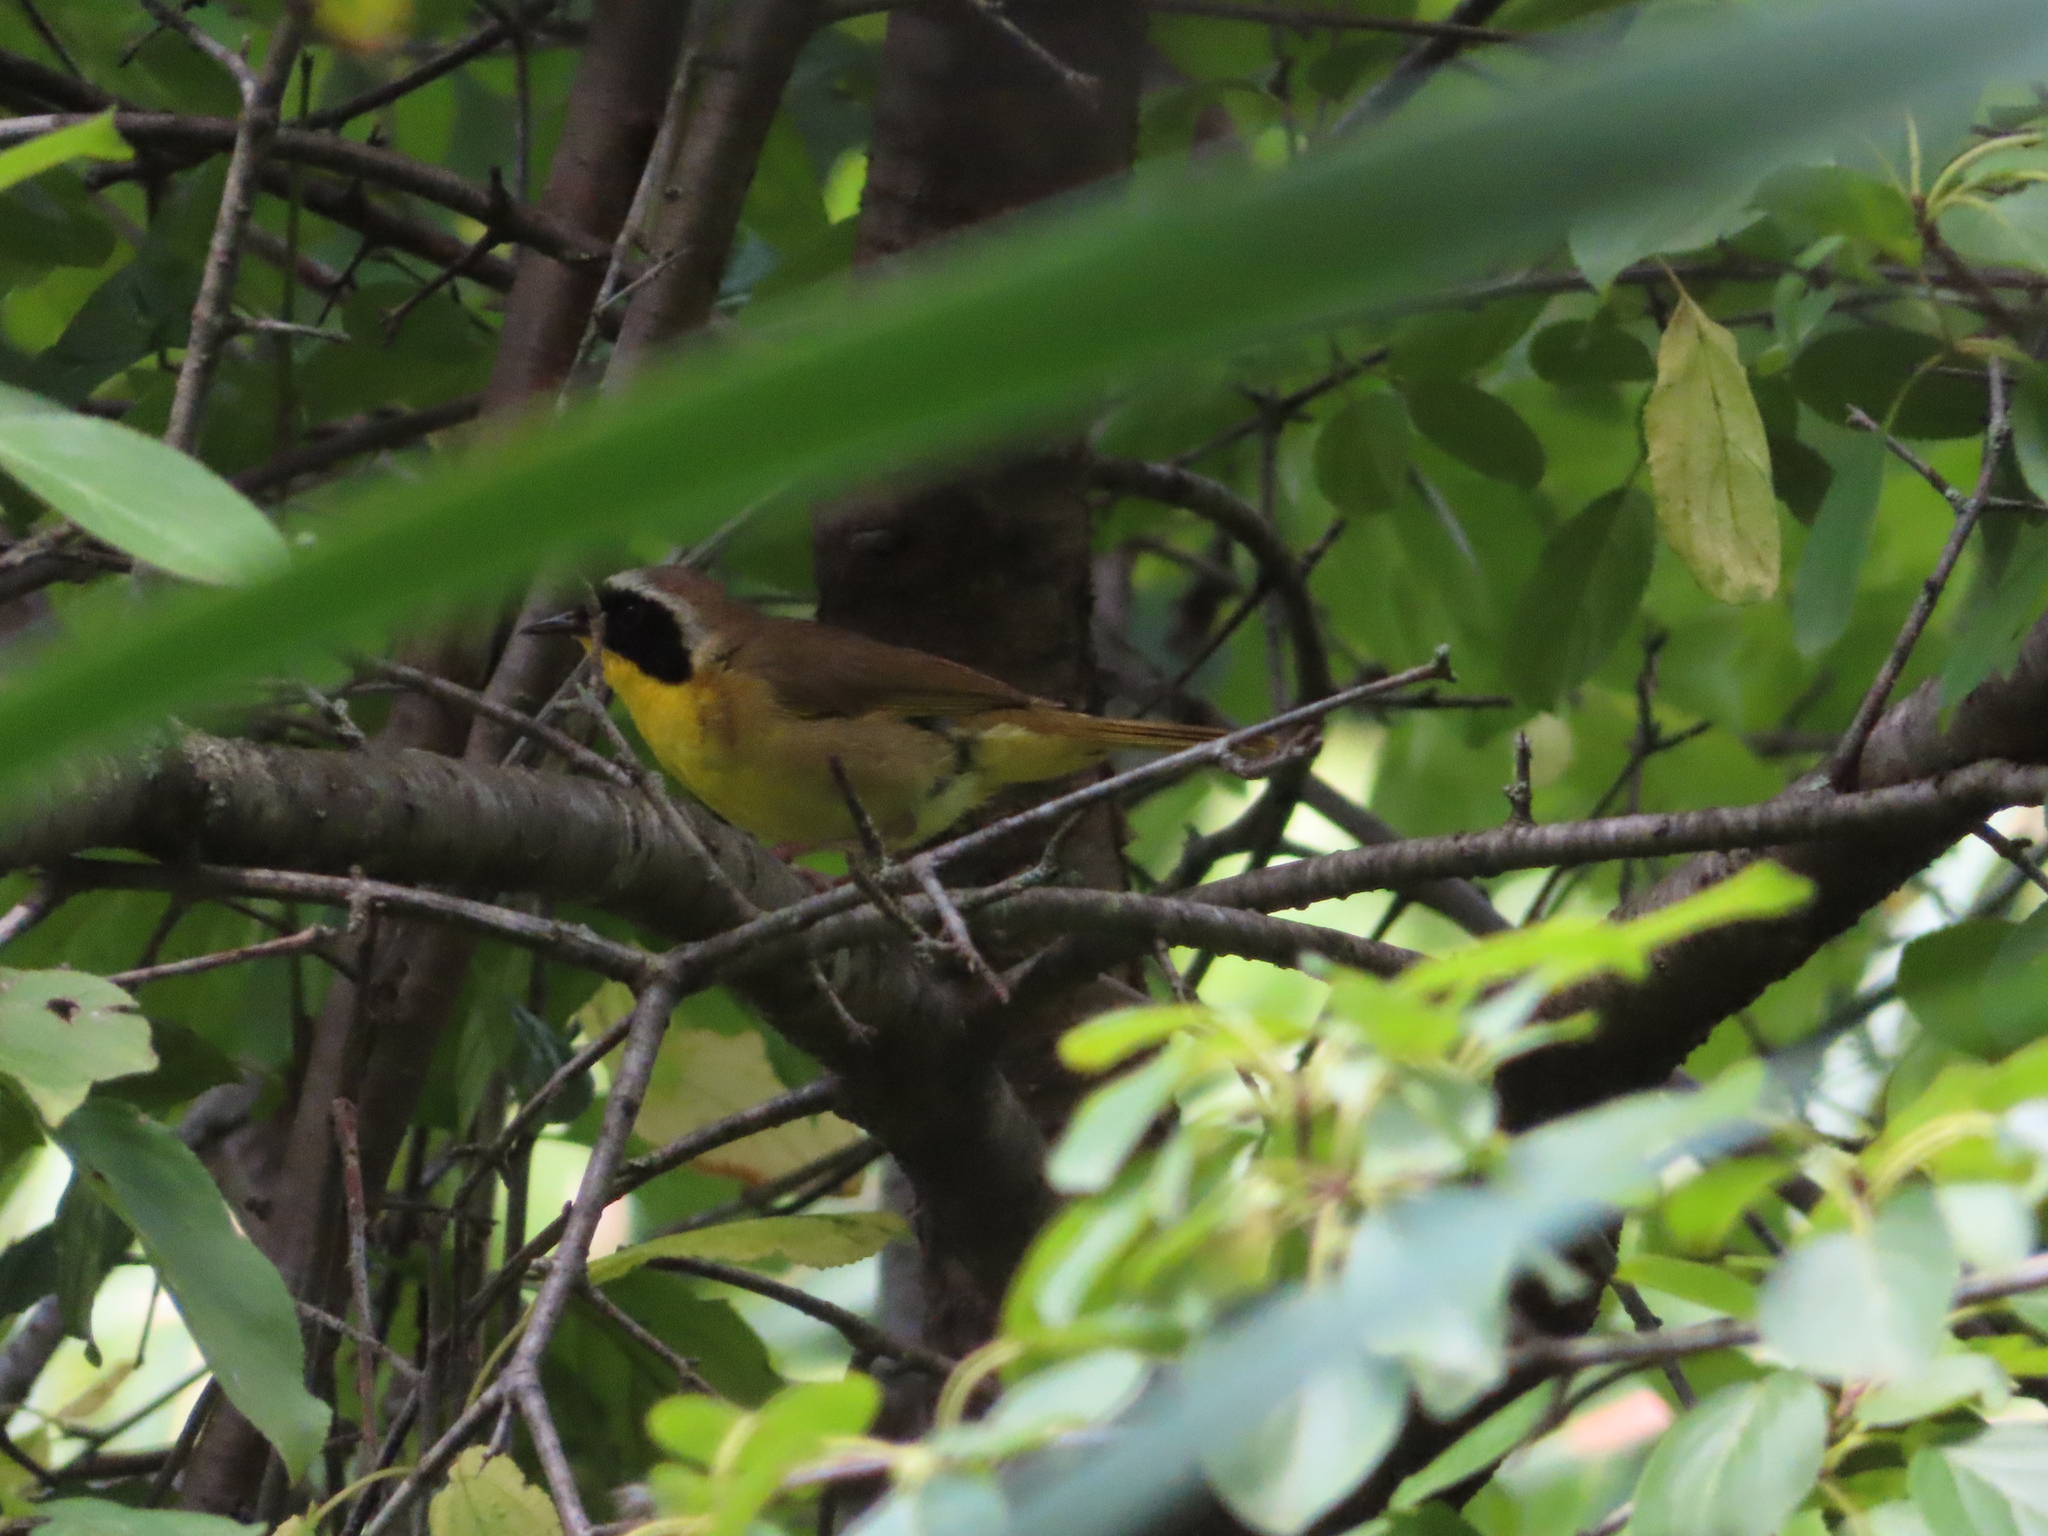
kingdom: Animalia
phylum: Chordata
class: Aves
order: Passeriformes
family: Parulidae
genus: Geothlypis
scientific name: Geothlypis trichas
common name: Common yellowthroat
